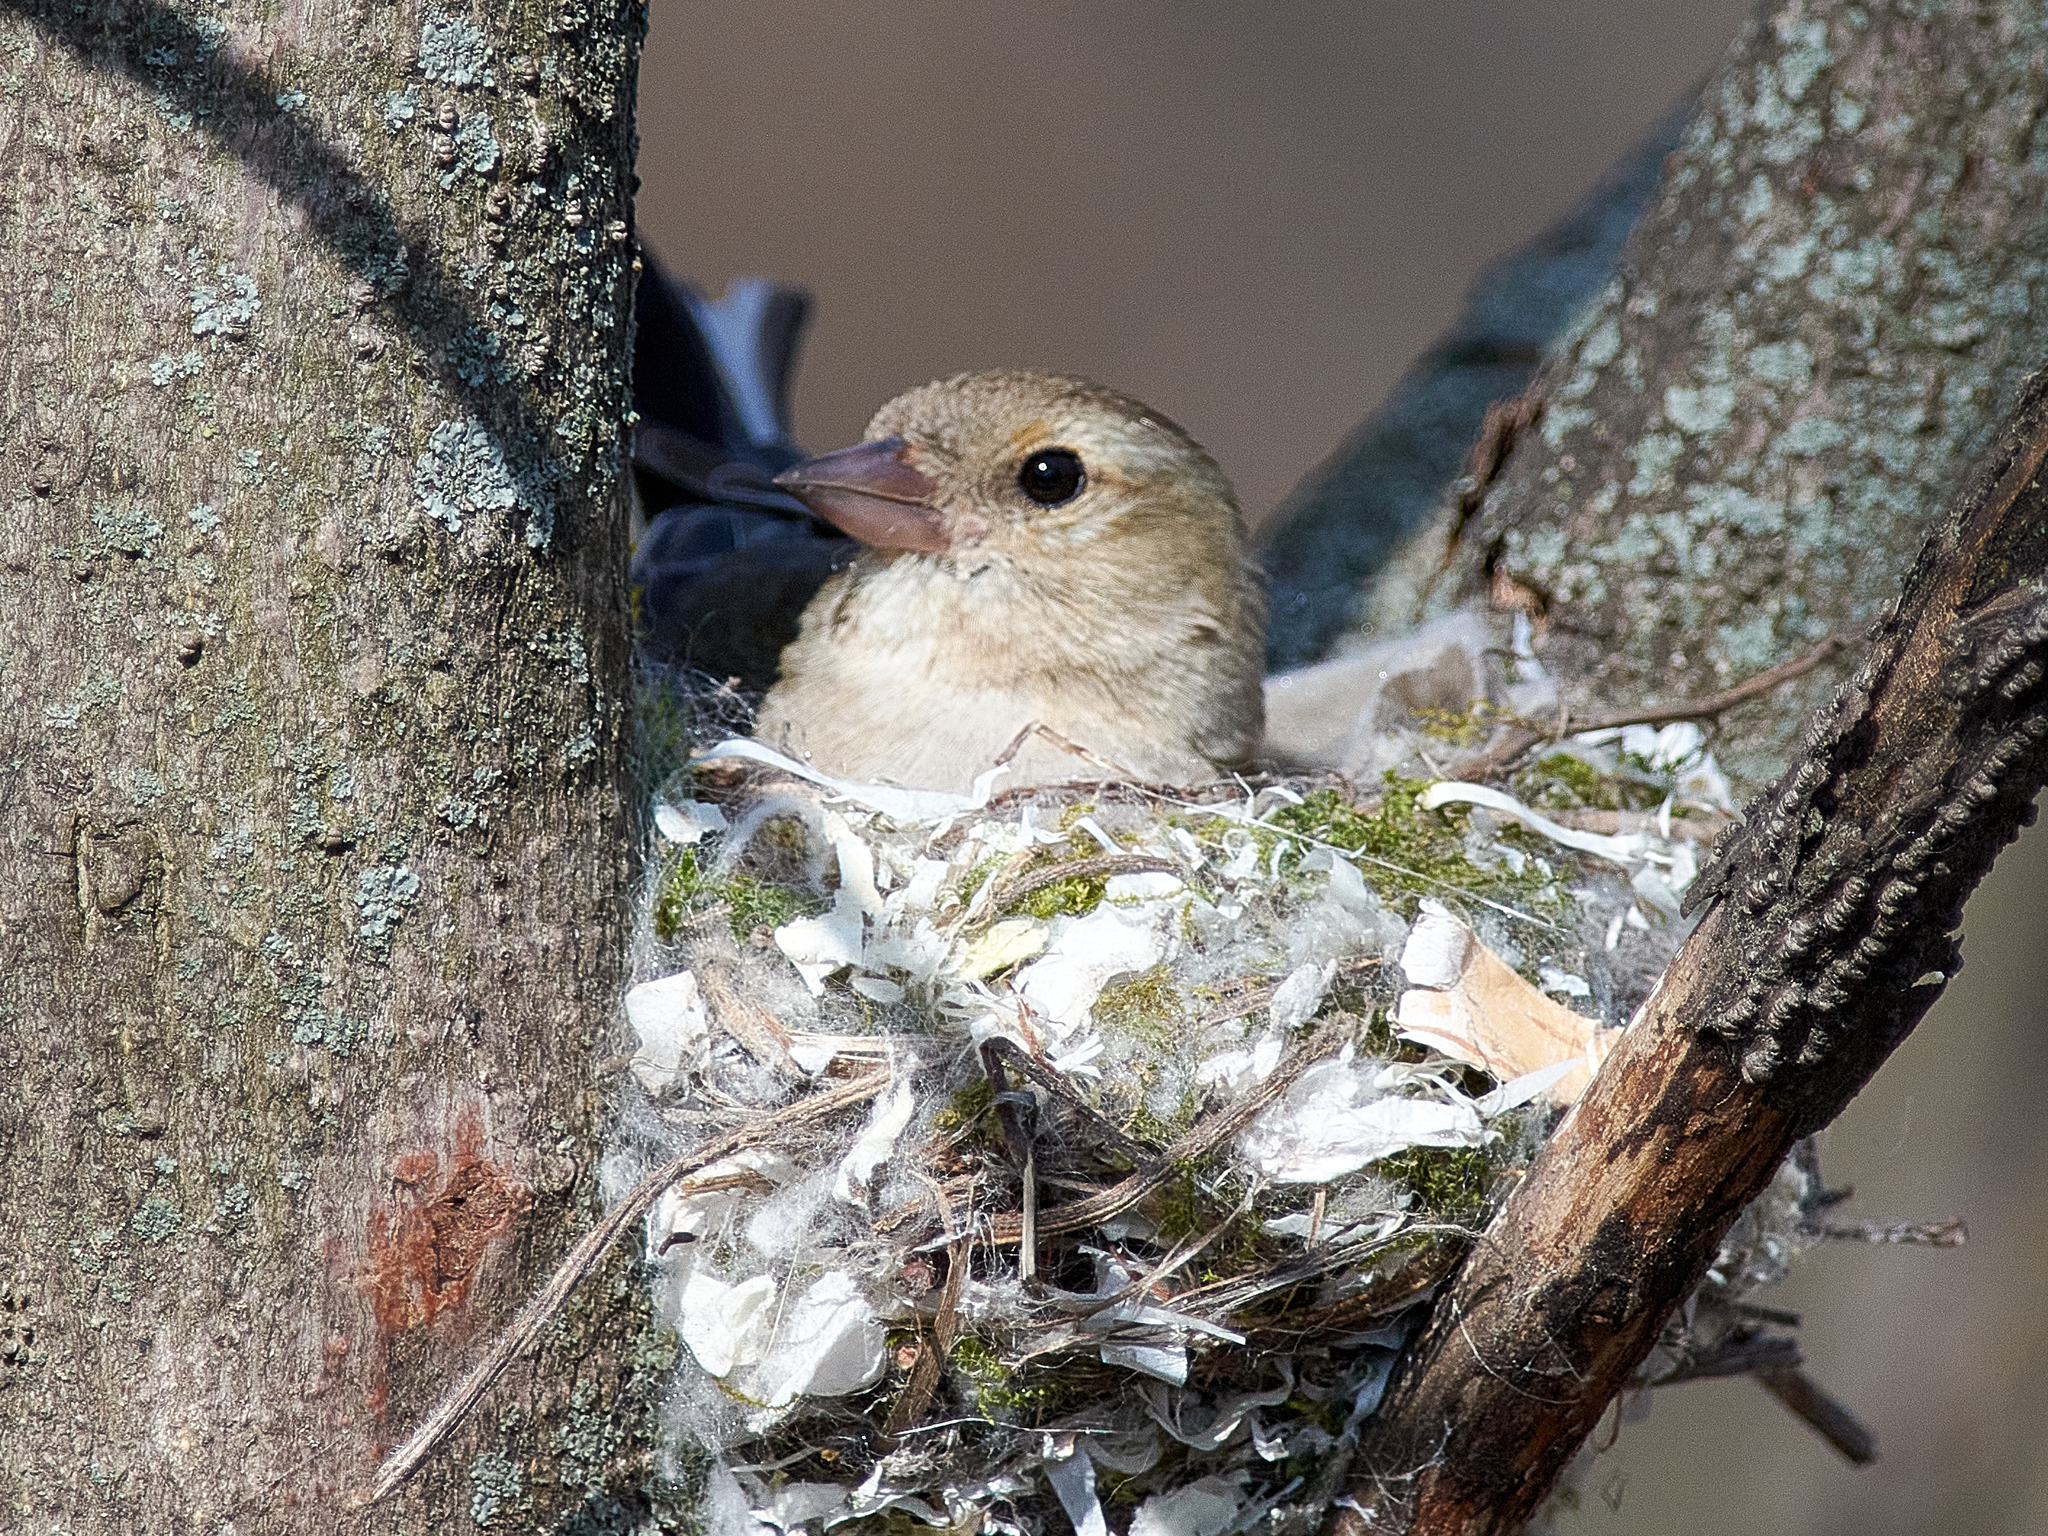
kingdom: Animalia
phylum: Chordata
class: Aves
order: Passeriformes
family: Fringillidae
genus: Fringilla
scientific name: Fringilla coelebs
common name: Common chaffinch
